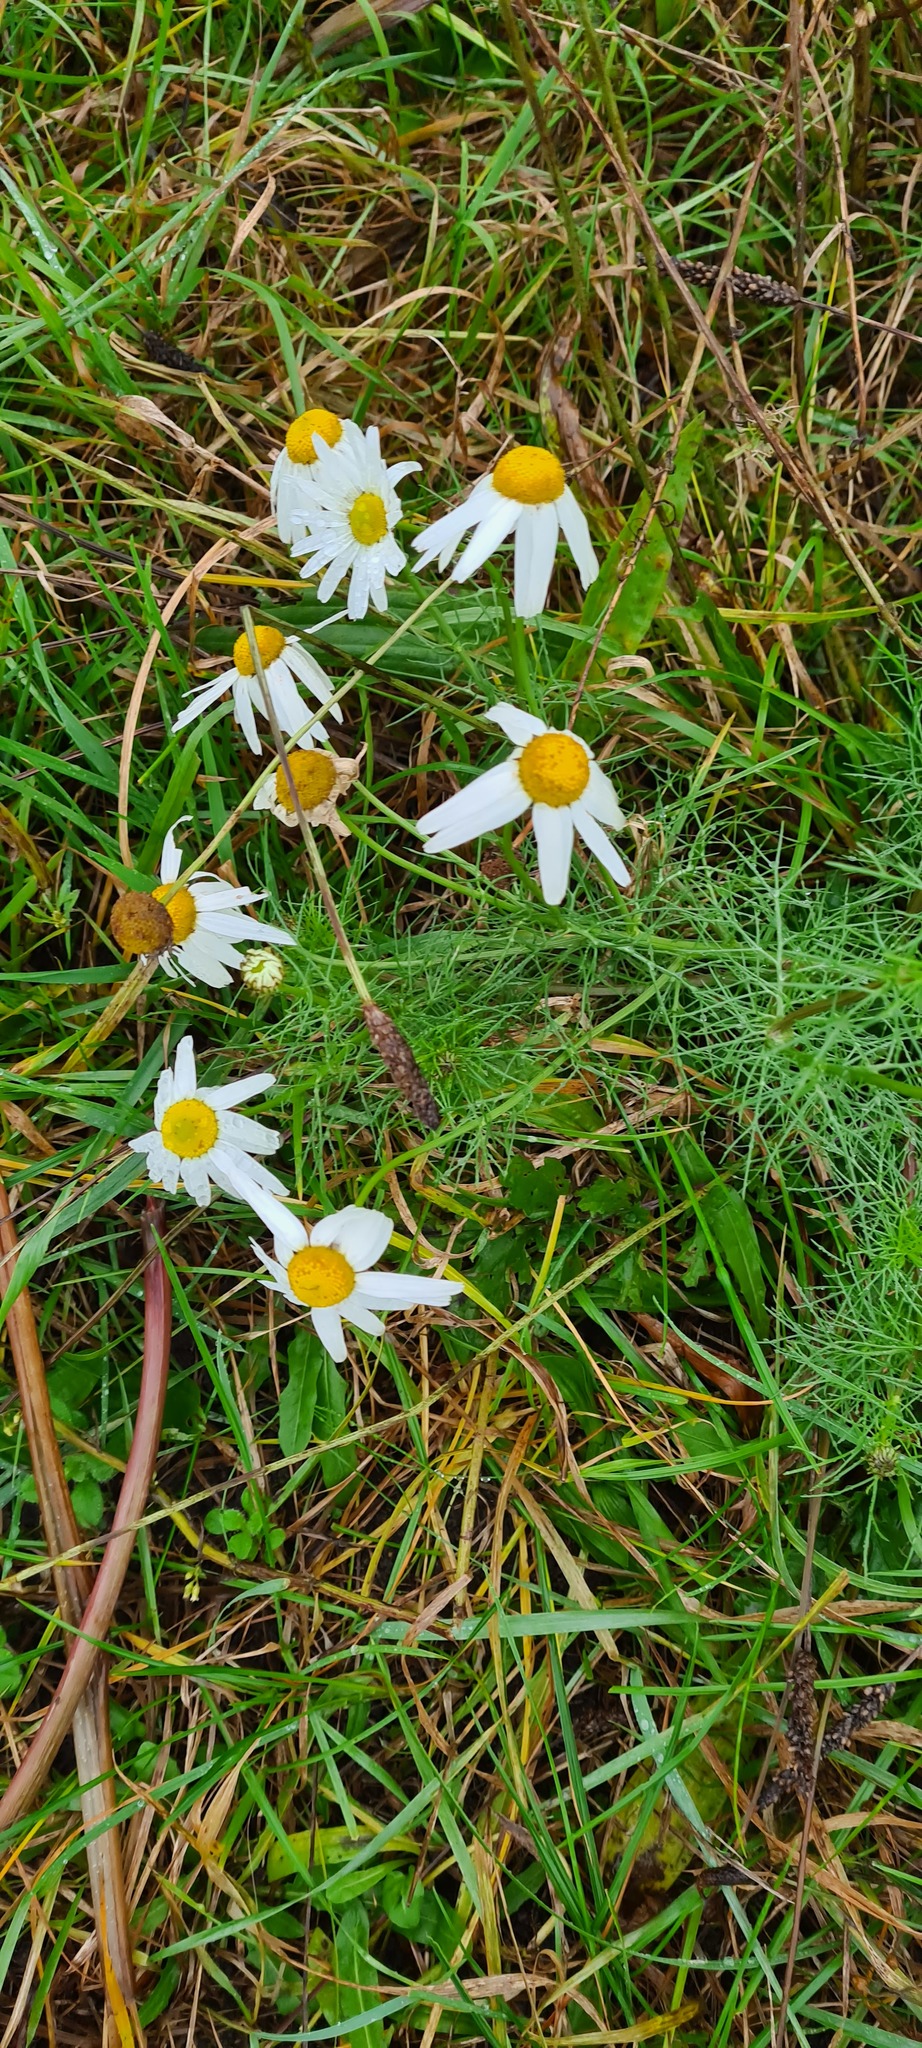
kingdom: Plantae
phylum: Tracheophyta
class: Magnoliopsida
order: Asterales
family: Asteraceae
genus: Tripleurospermum
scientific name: Tripleurospermum inodorum
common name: Scentless mayweed
